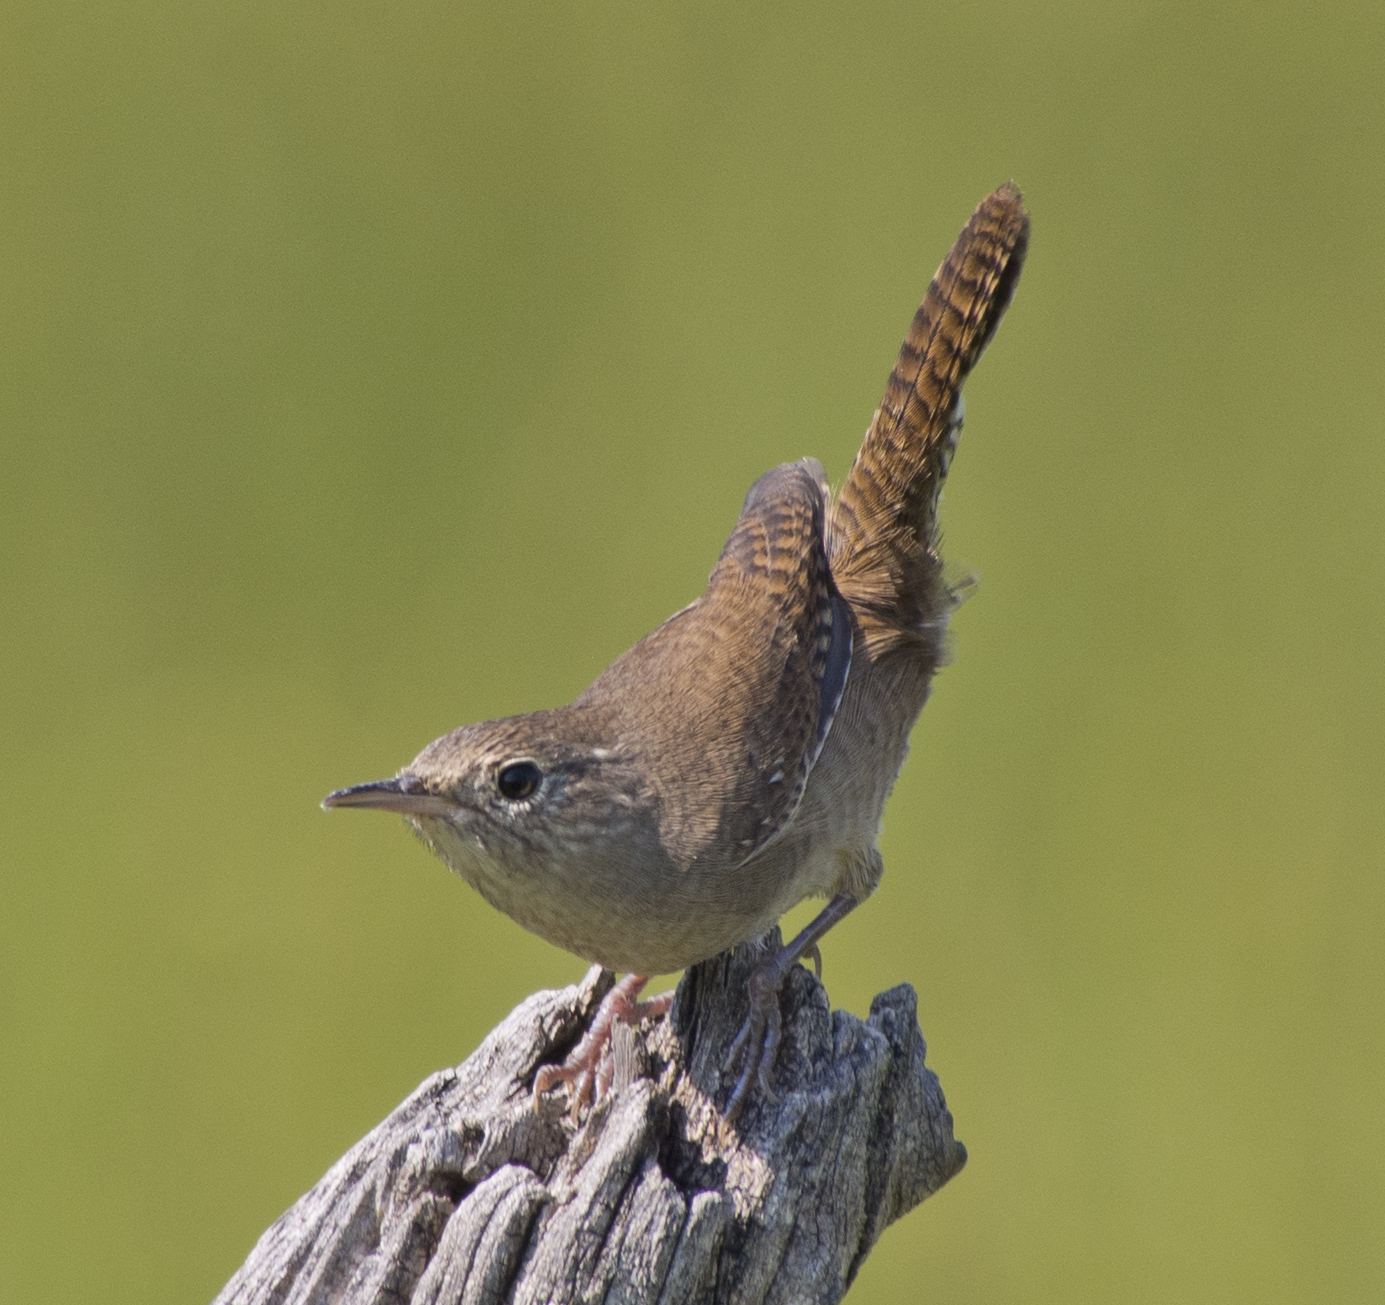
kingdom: Animalia
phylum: Chordata
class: Aves
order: Passeriformes
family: Troglodytidae
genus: Troglodytes
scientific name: Troglodytes aedon
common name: House wren
